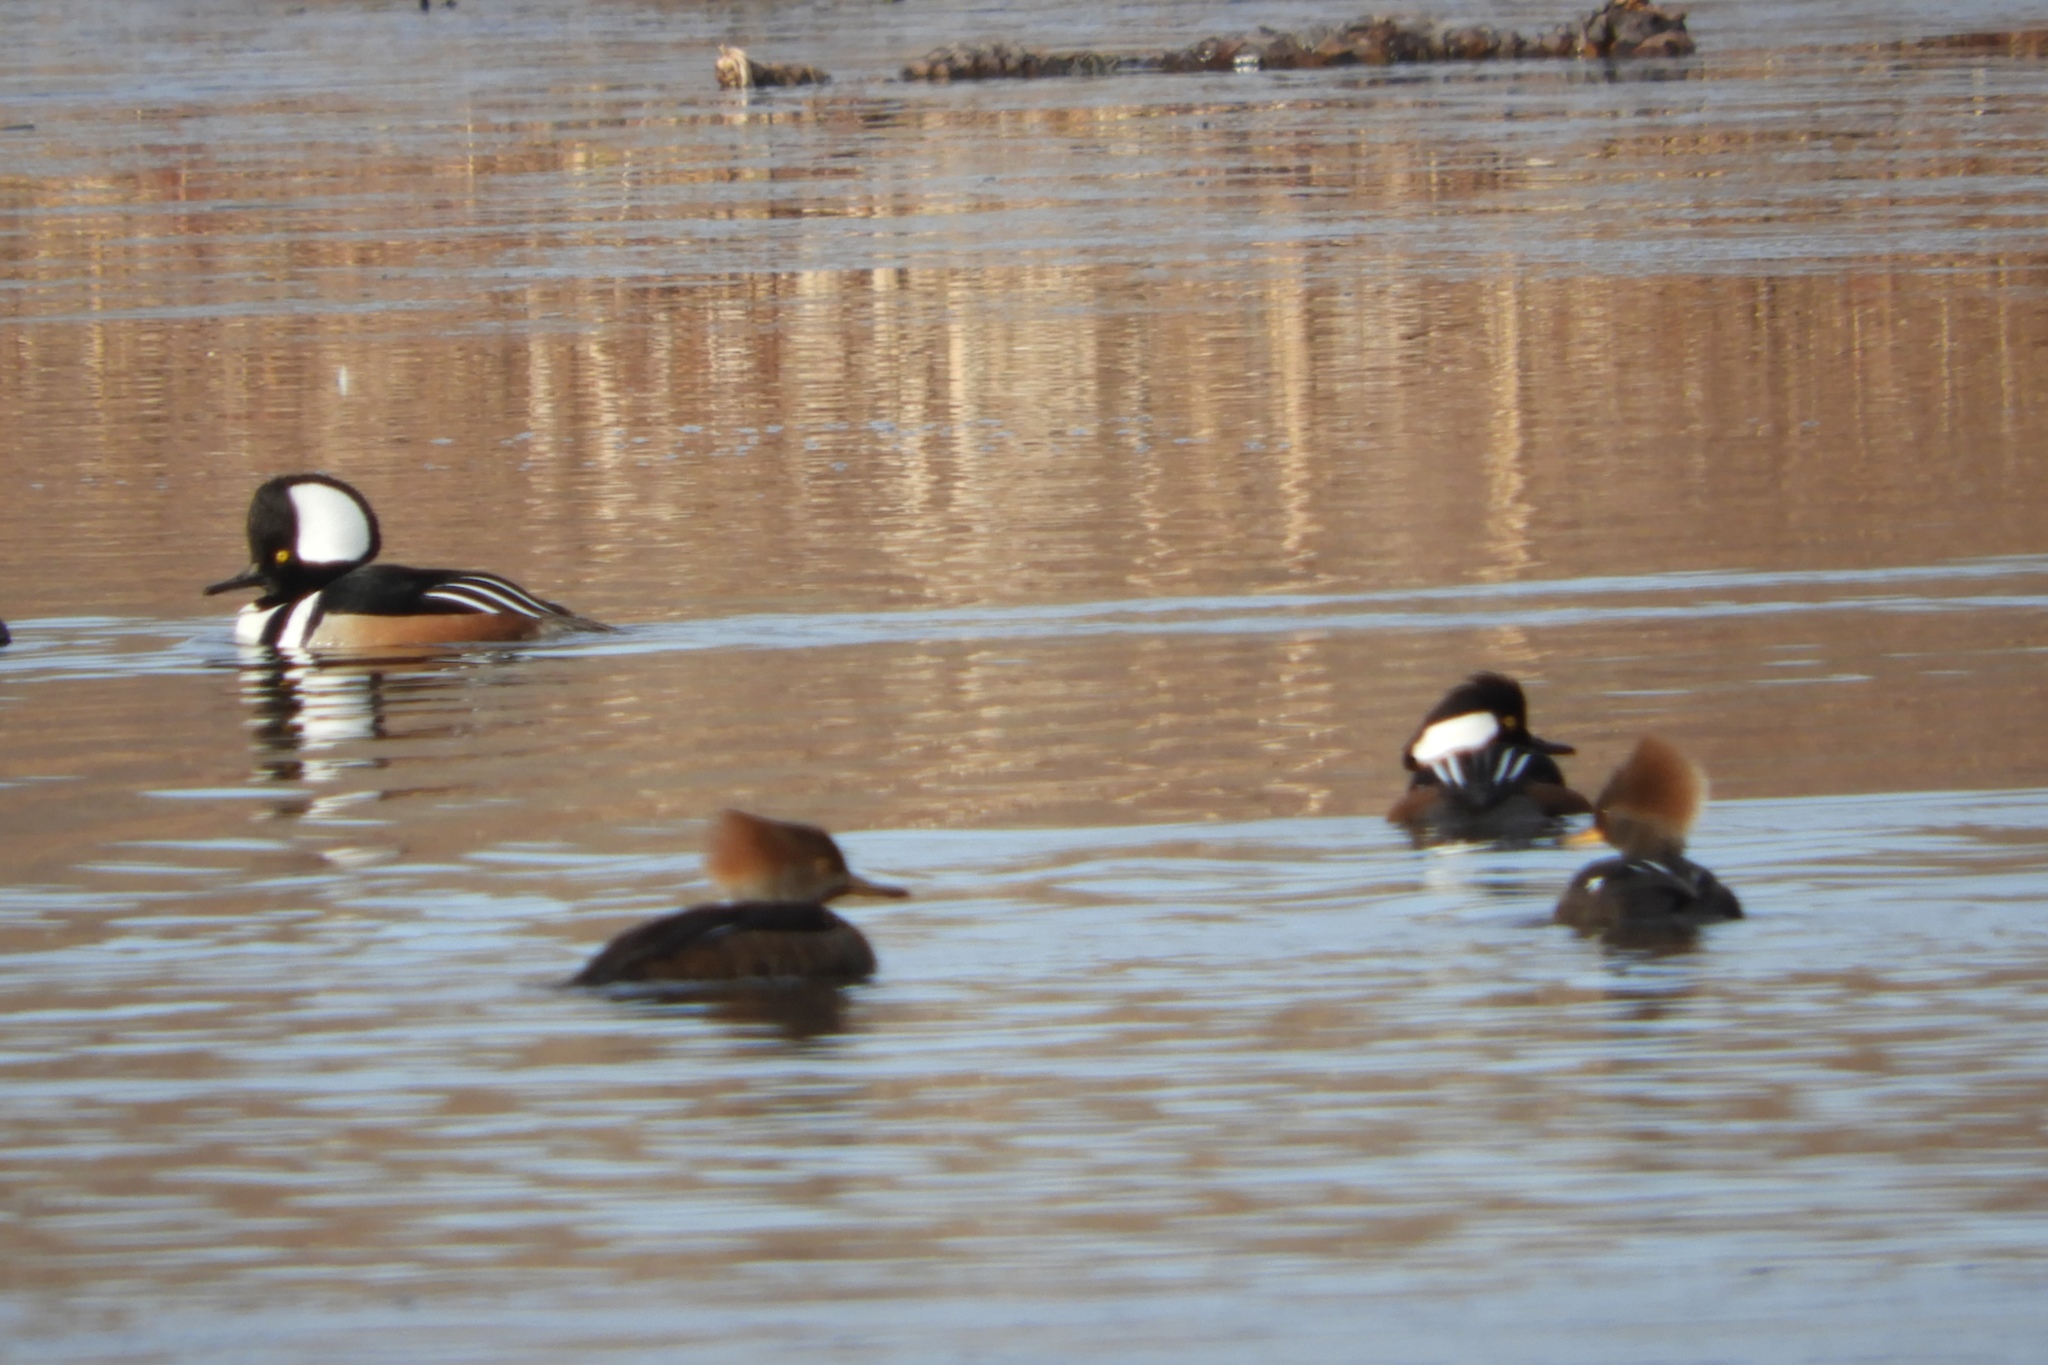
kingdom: Animalia
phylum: Chordata
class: Aves
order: Anseriformes
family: Anatidae
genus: Lophodytes
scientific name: Lophodytes cucullatus
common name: Hooded merganser
